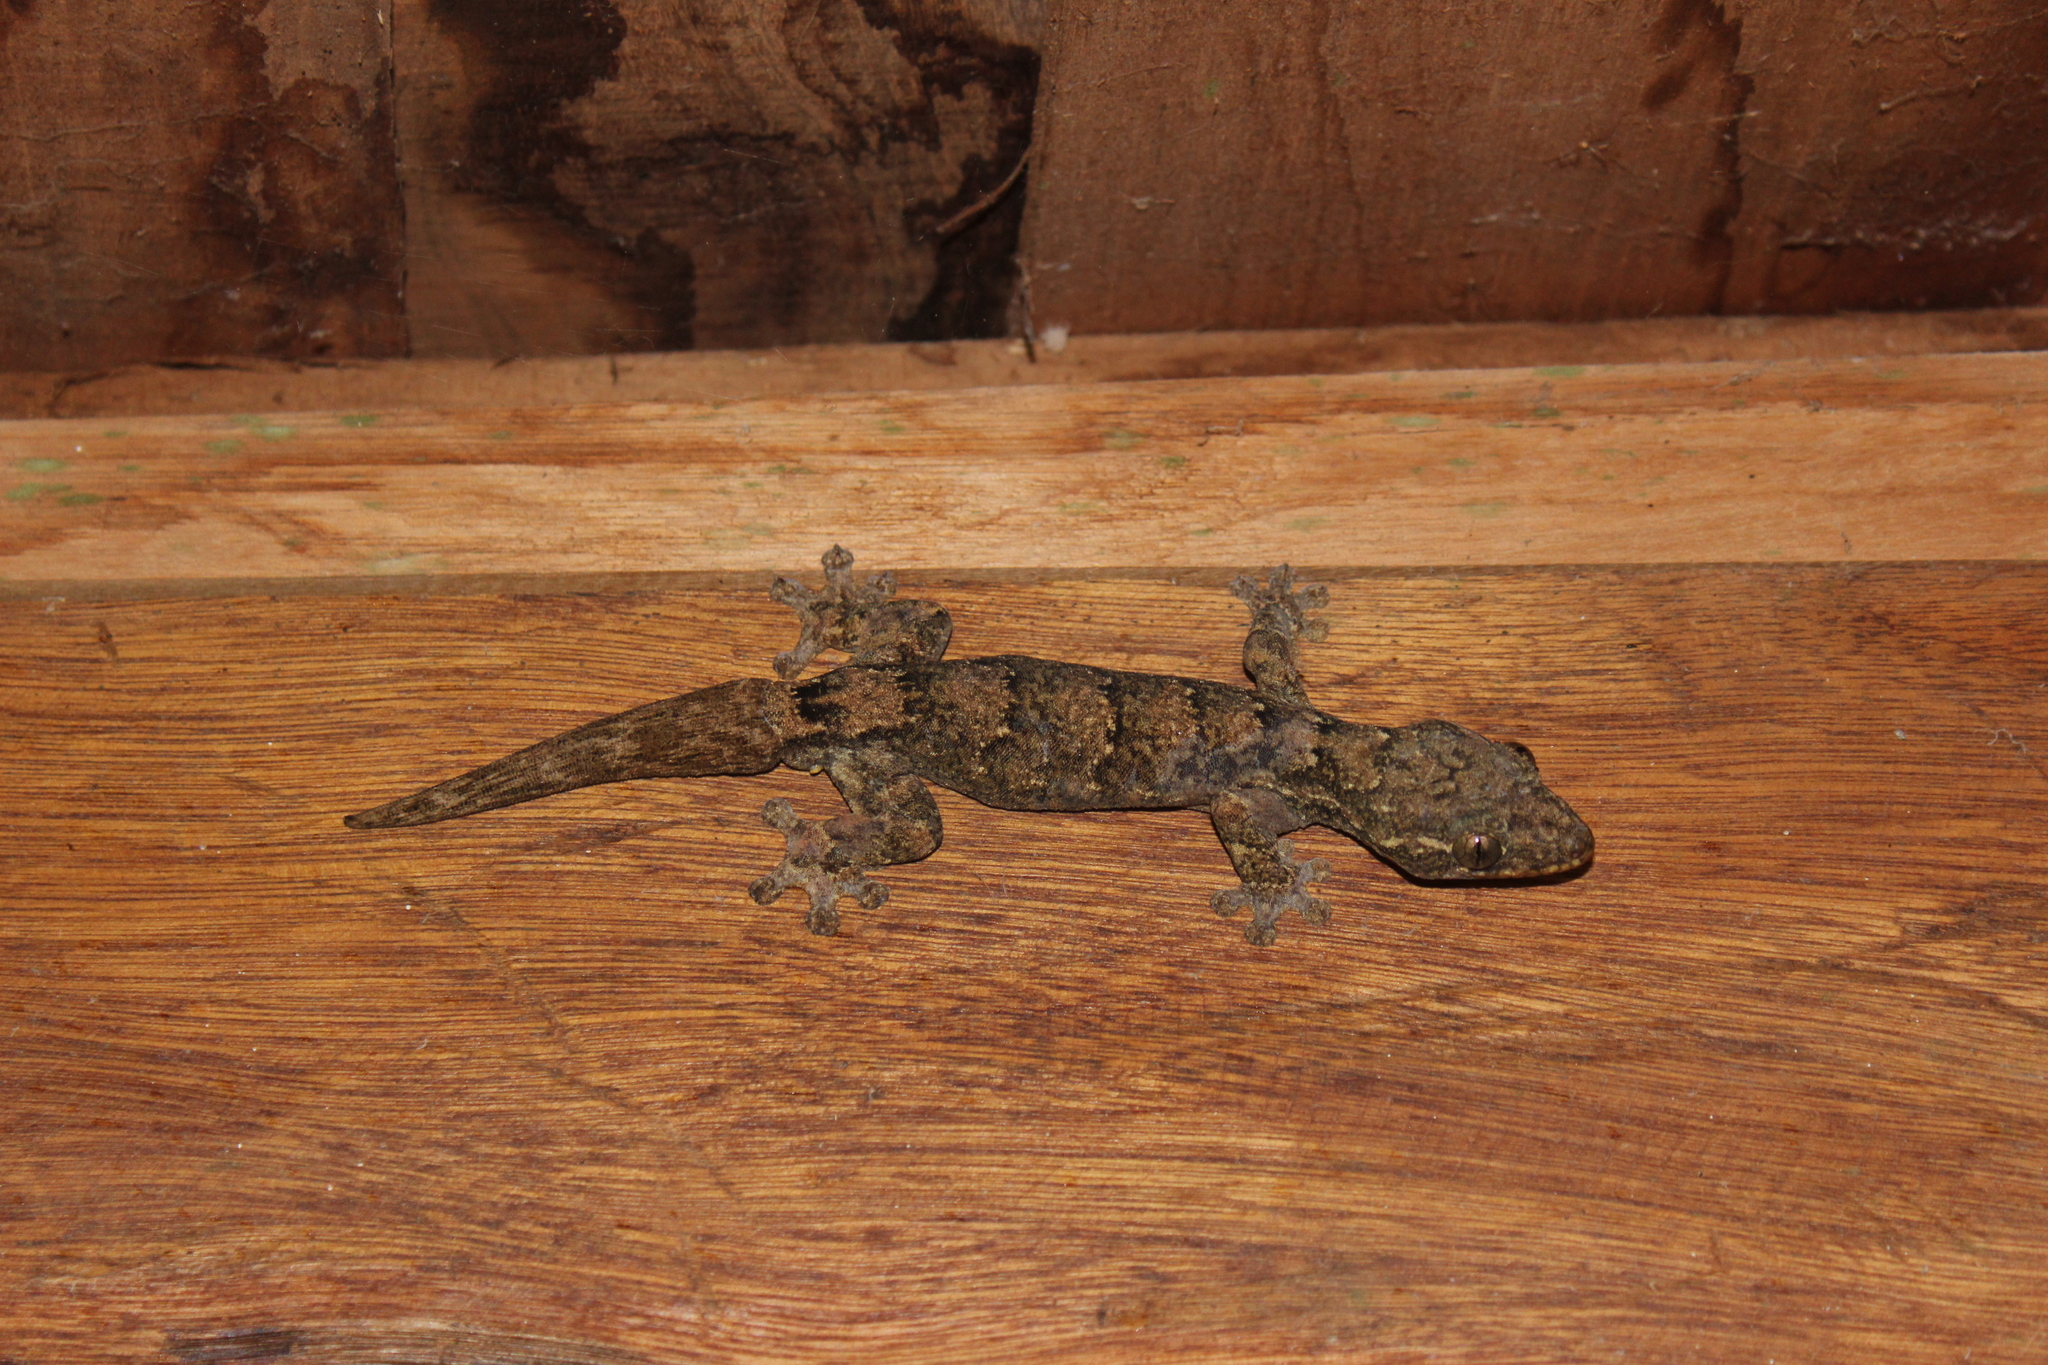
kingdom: Animalia
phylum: Chordata
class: Squamata
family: Phyllodactylidae
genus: Thecadactylus
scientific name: Thecadactylus rapicauda
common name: Turnip-tailed gecko
